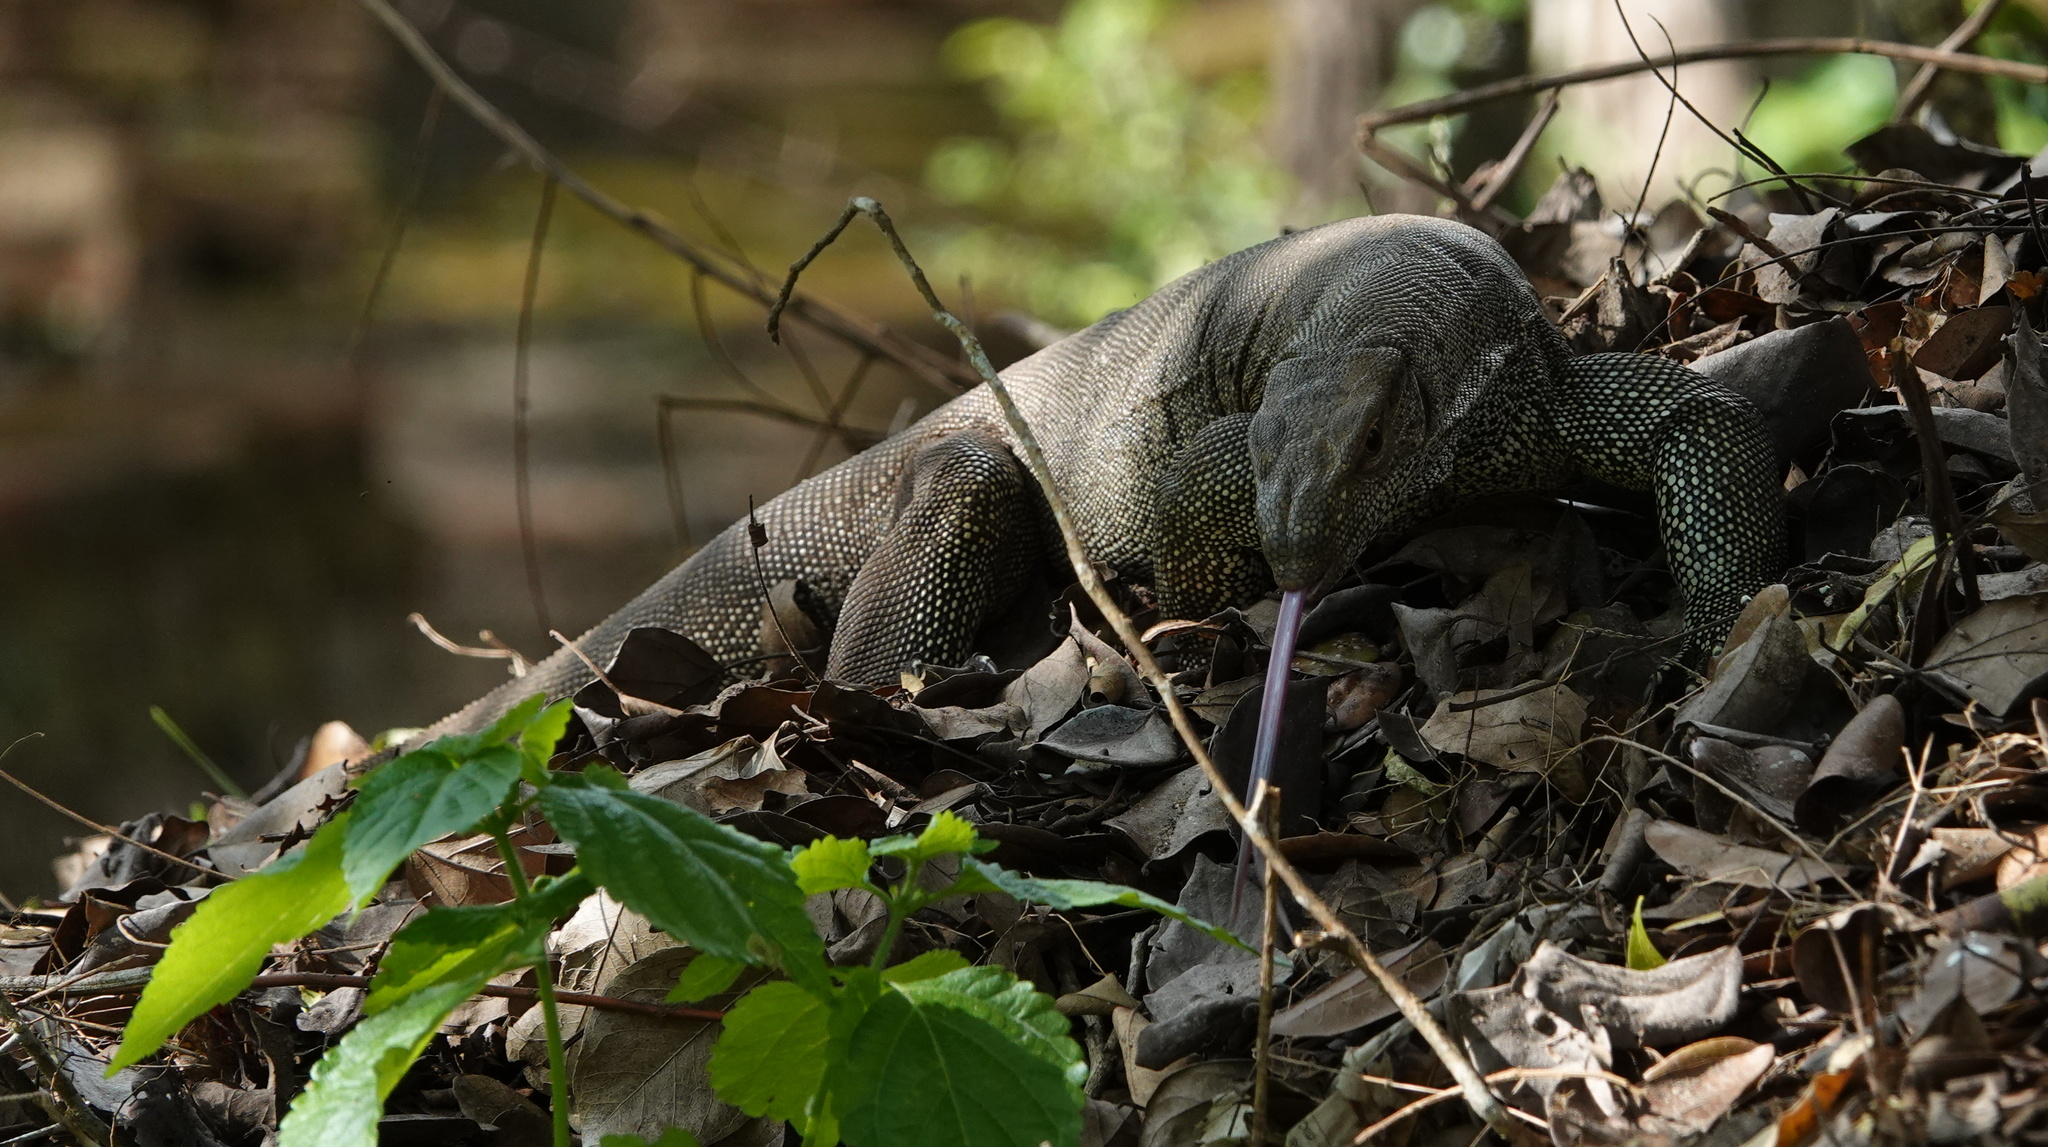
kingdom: Animalia
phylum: Chordata
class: Squamata
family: Varanidae
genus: Varanus
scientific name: Varanus bengalensis
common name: Bengal monitor
